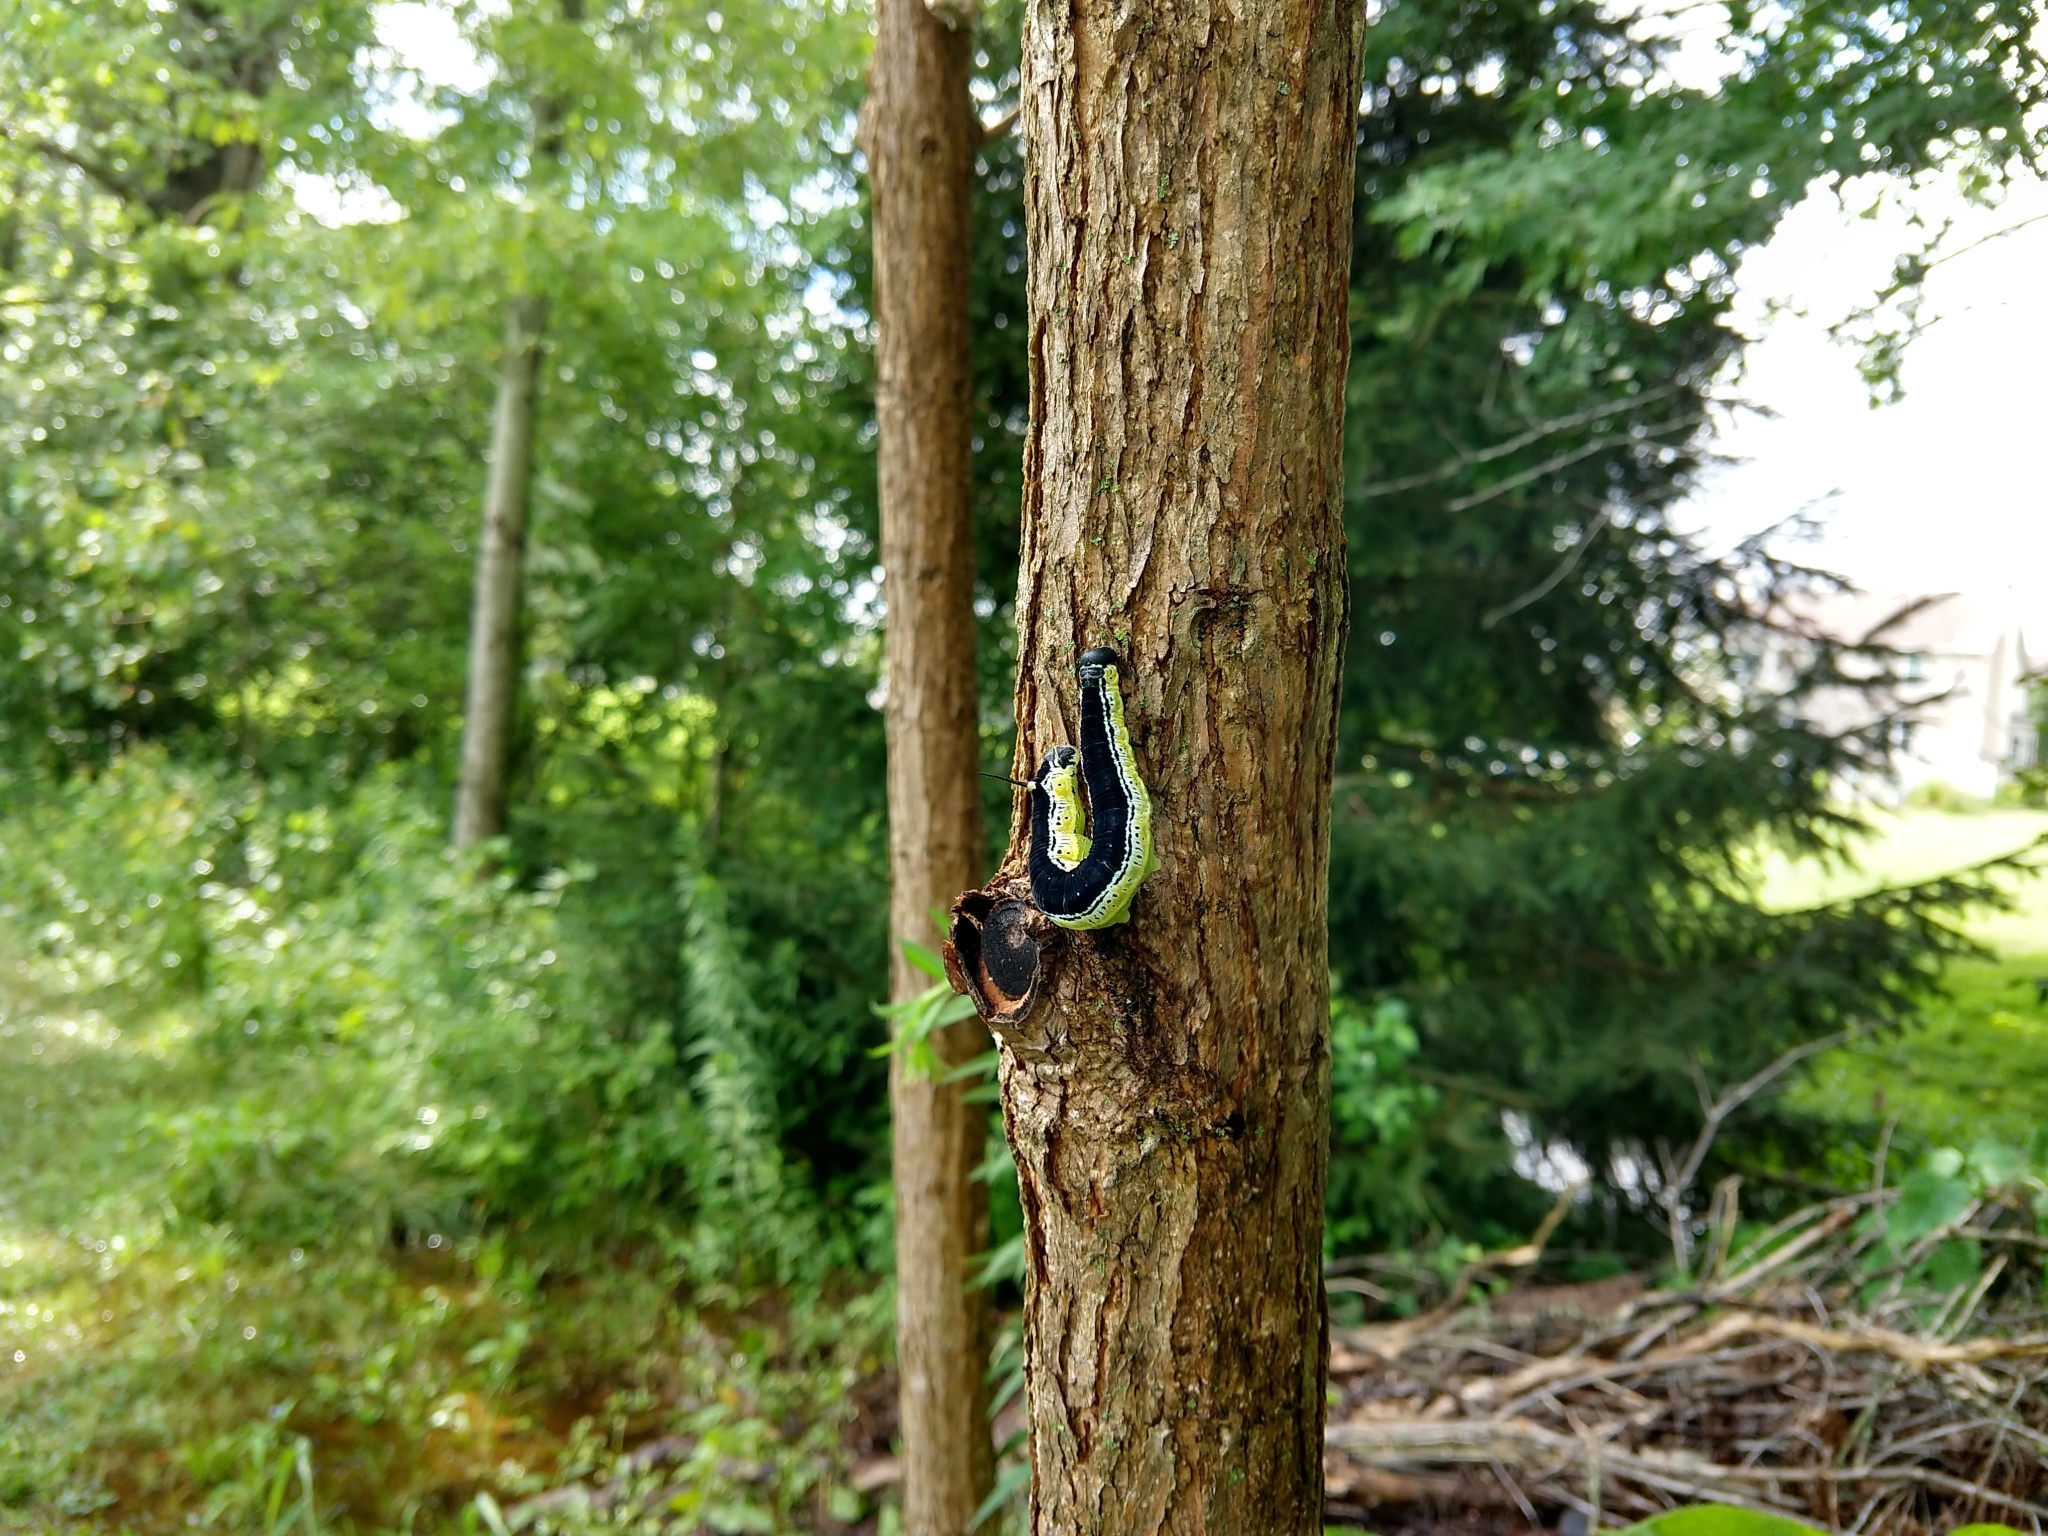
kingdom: Animalia
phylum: Arthropoda
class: Insecta
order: Lepidoptera
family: Sphingidae
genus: Ceratomia
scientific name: Ceratomia catalpae
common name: Catalpa hornworm
